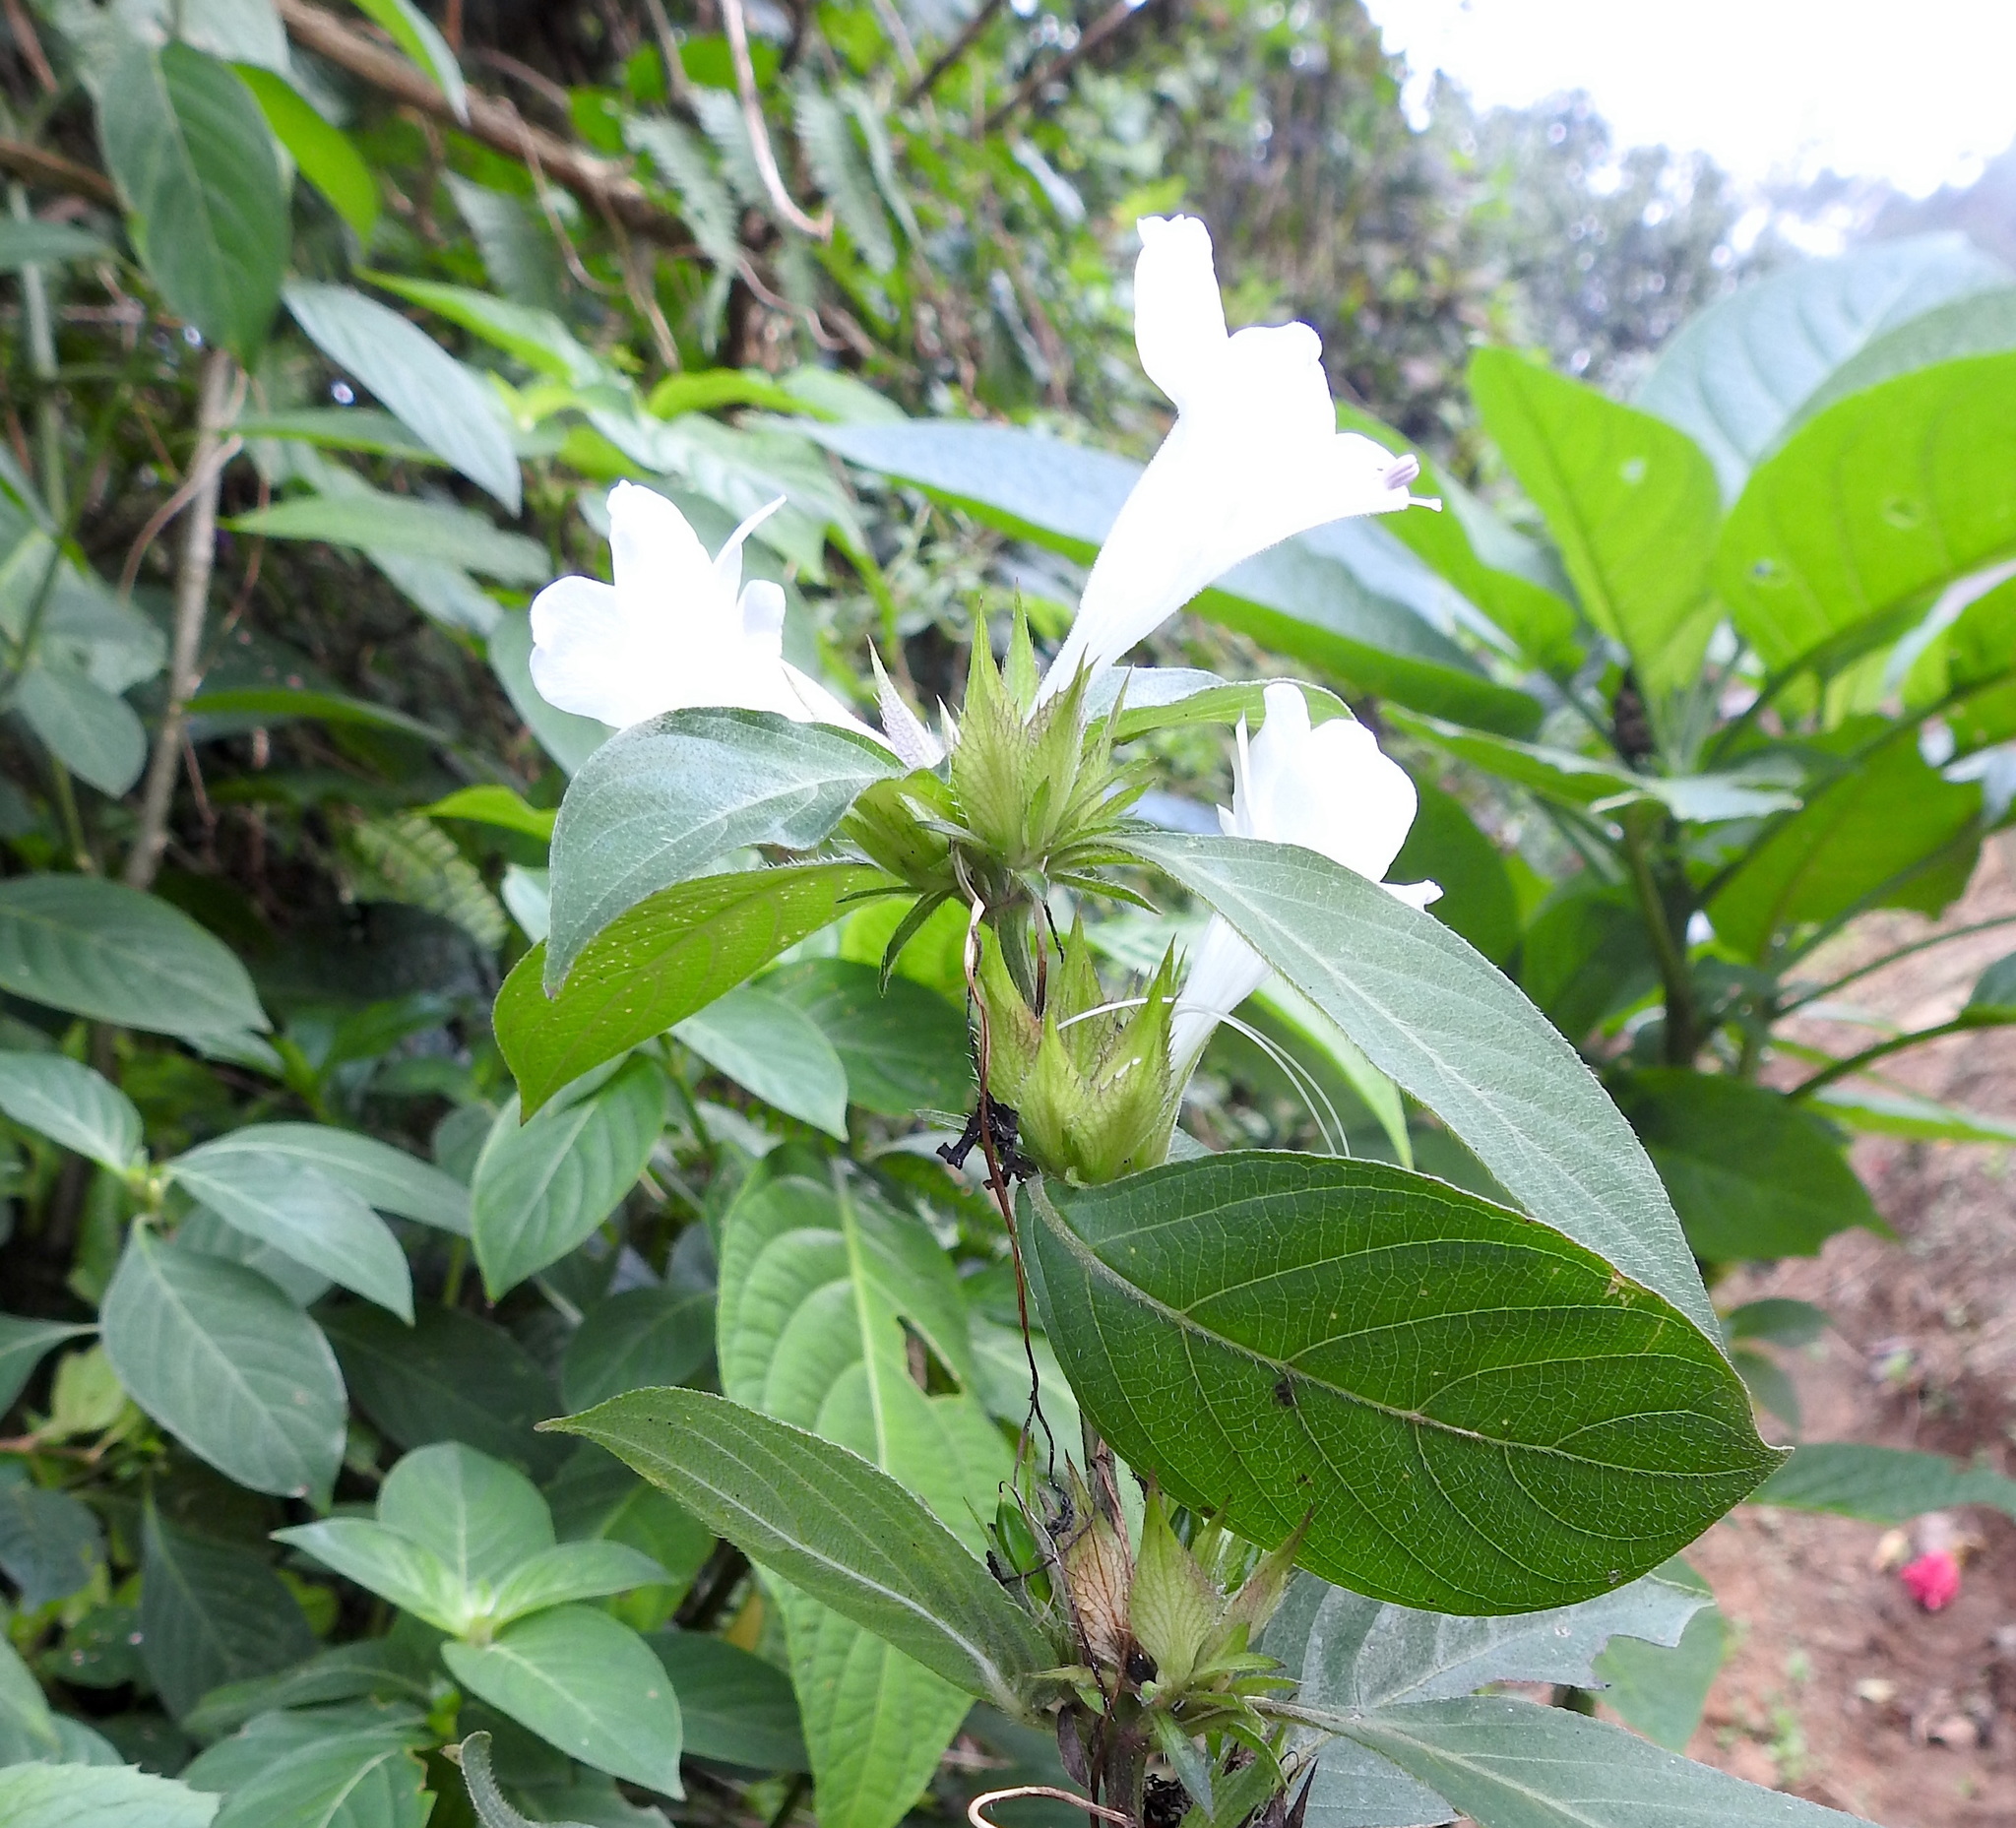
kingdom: Plantae
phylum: Tracheophyta
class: Magnoliopsida
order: Lamiales
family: Acanthaceae
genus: Barleria
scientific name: Barleria cristata
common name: Crested philippine violet
